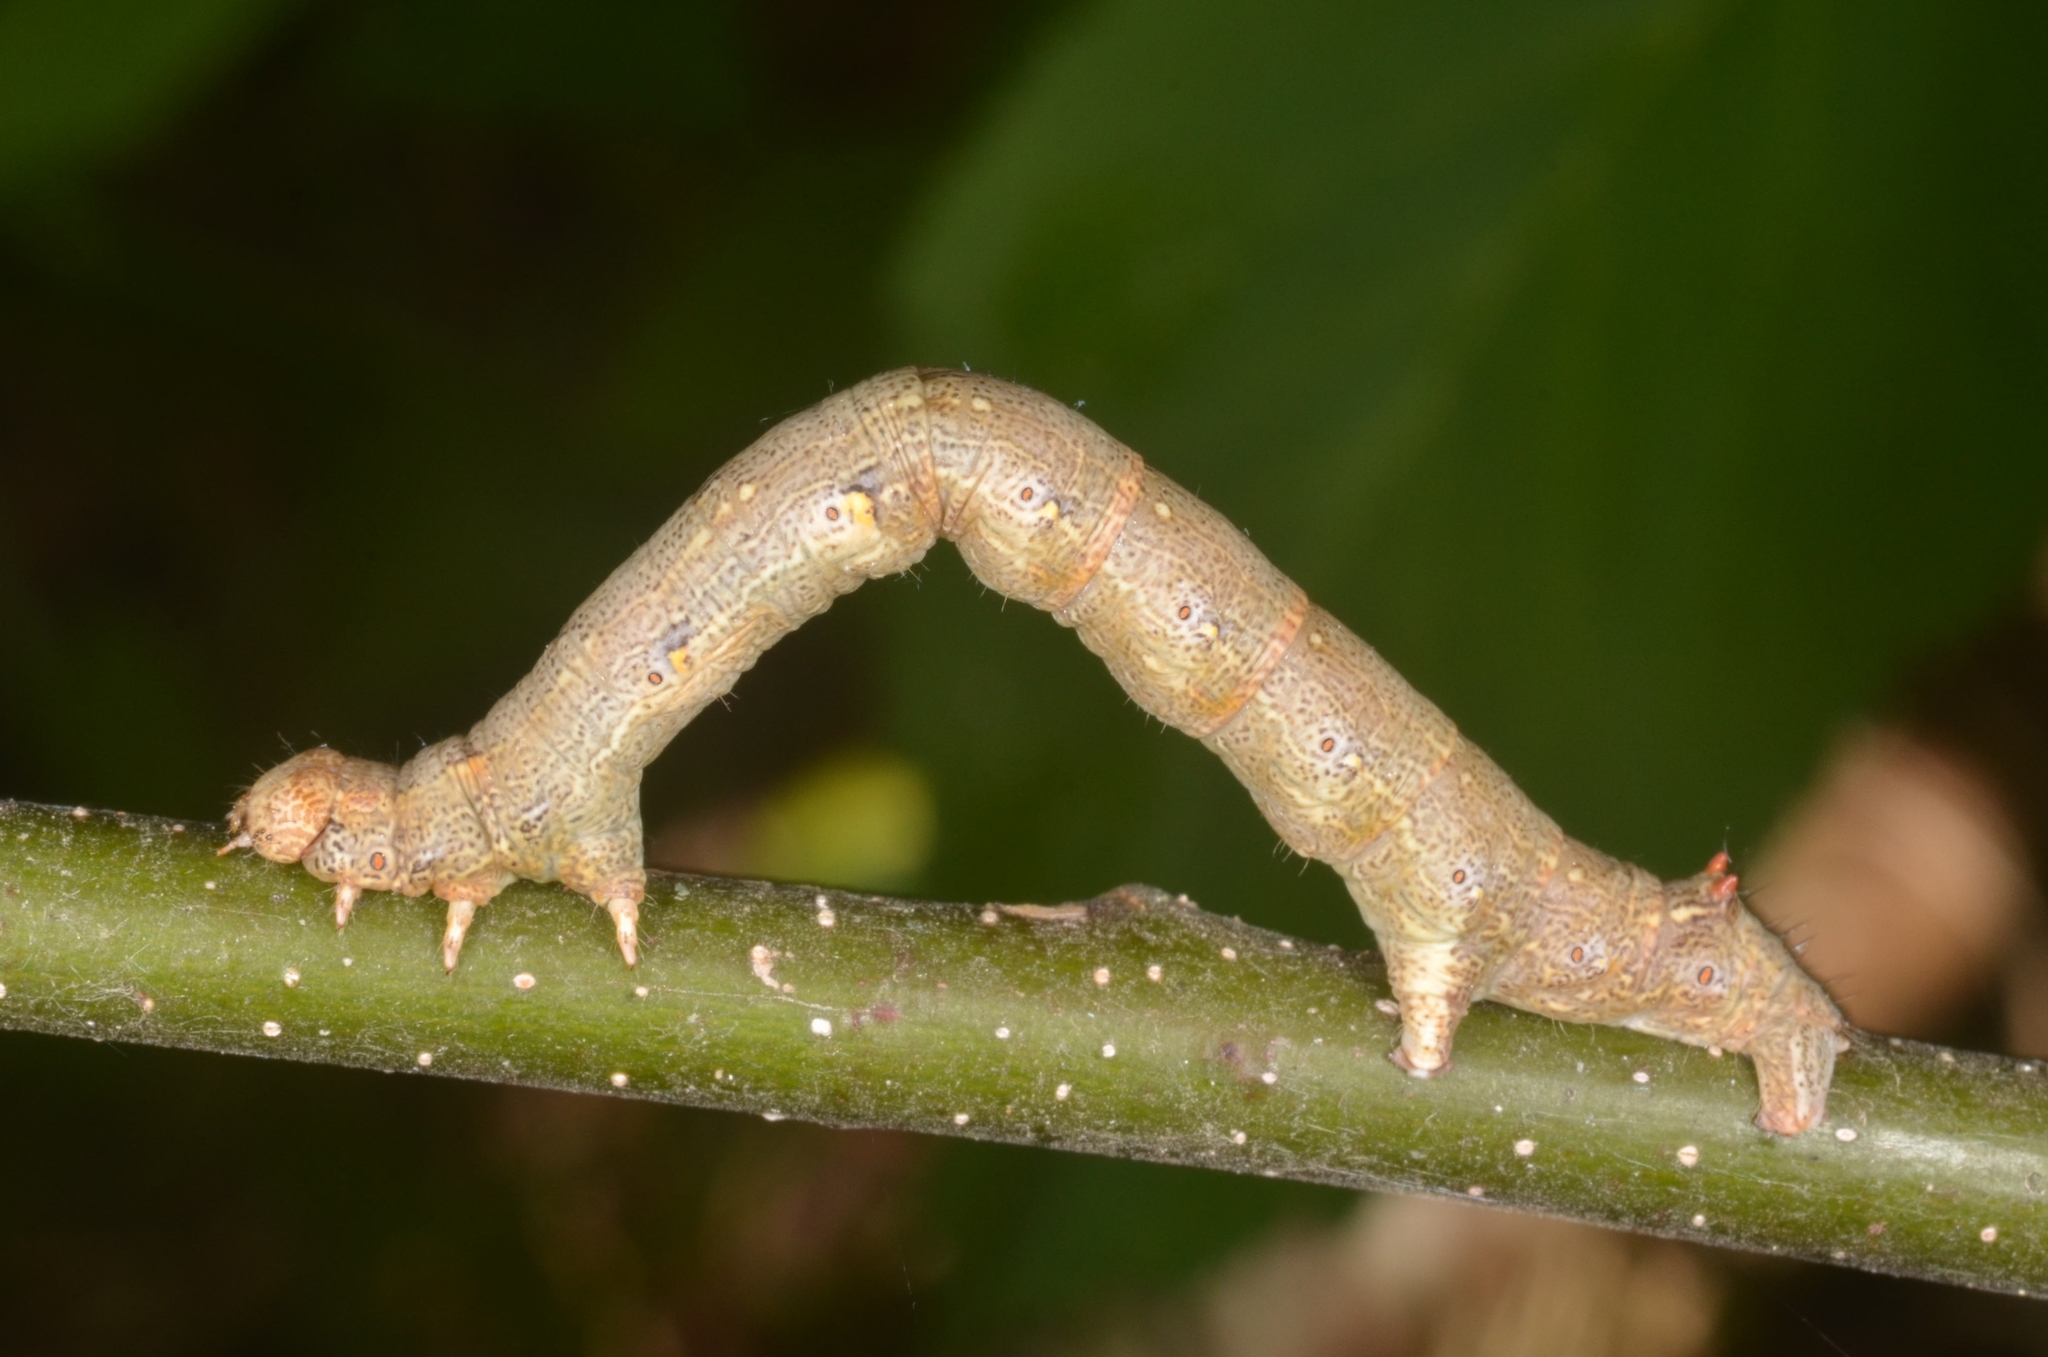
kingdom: Animalia
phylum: Arthropoda
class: Insecta
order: Lepidoptera
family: Geometridae
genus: Colotois
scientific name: Colotois pennaria
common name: Feathered thorn
